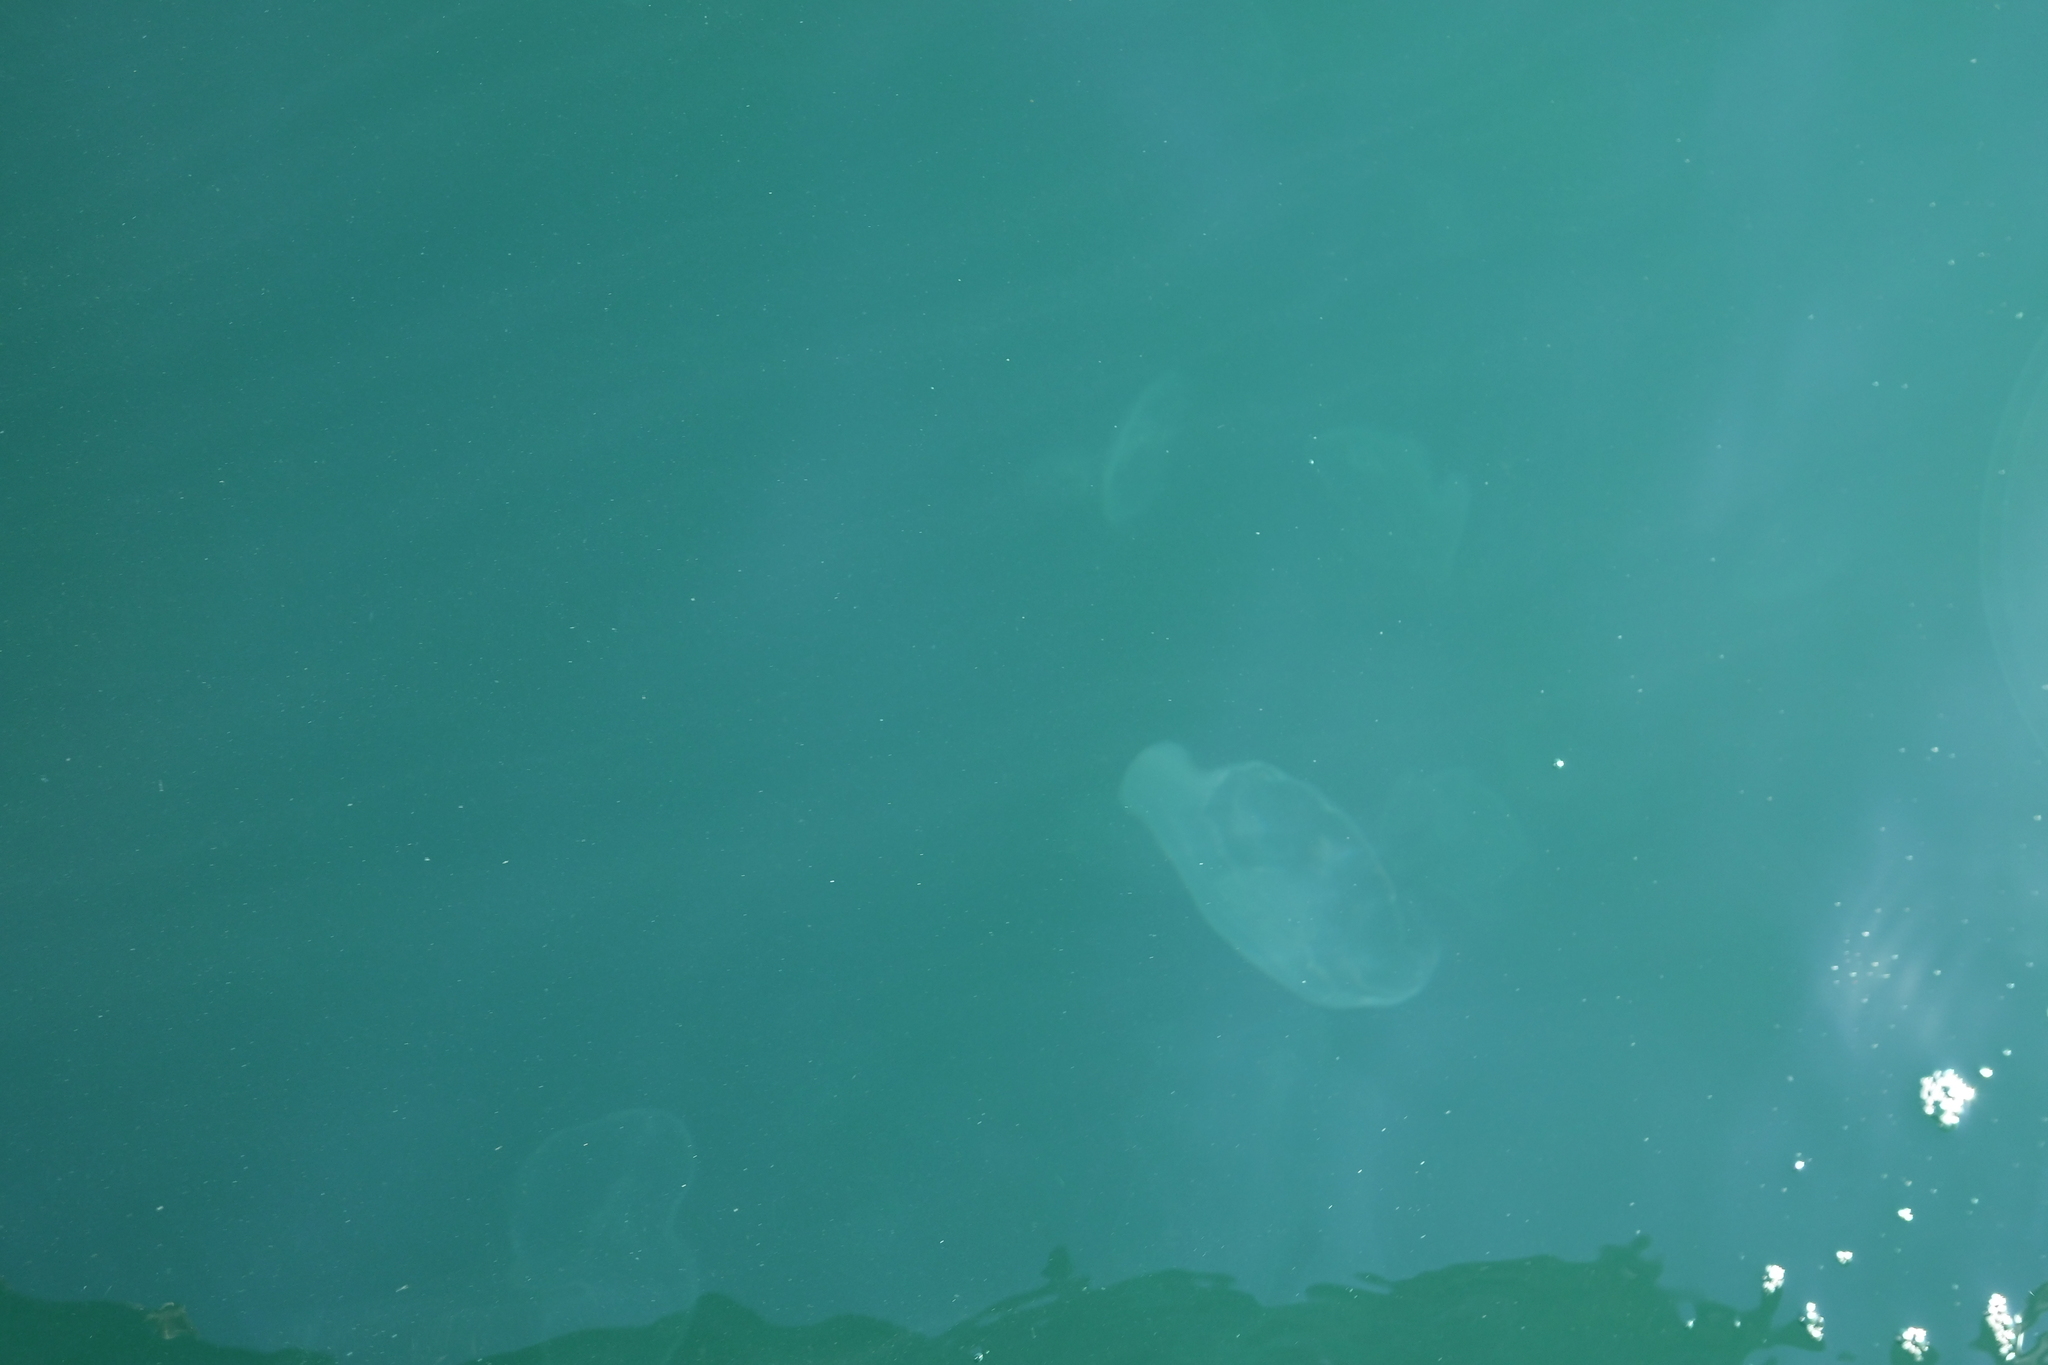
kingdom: Animalia
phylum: Cnidaria
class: Scyphozoa
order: Semaeostomeae
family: Ulmaridae
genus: Aurelia
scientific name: Aurelia aurita
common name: Moon jellyfish
